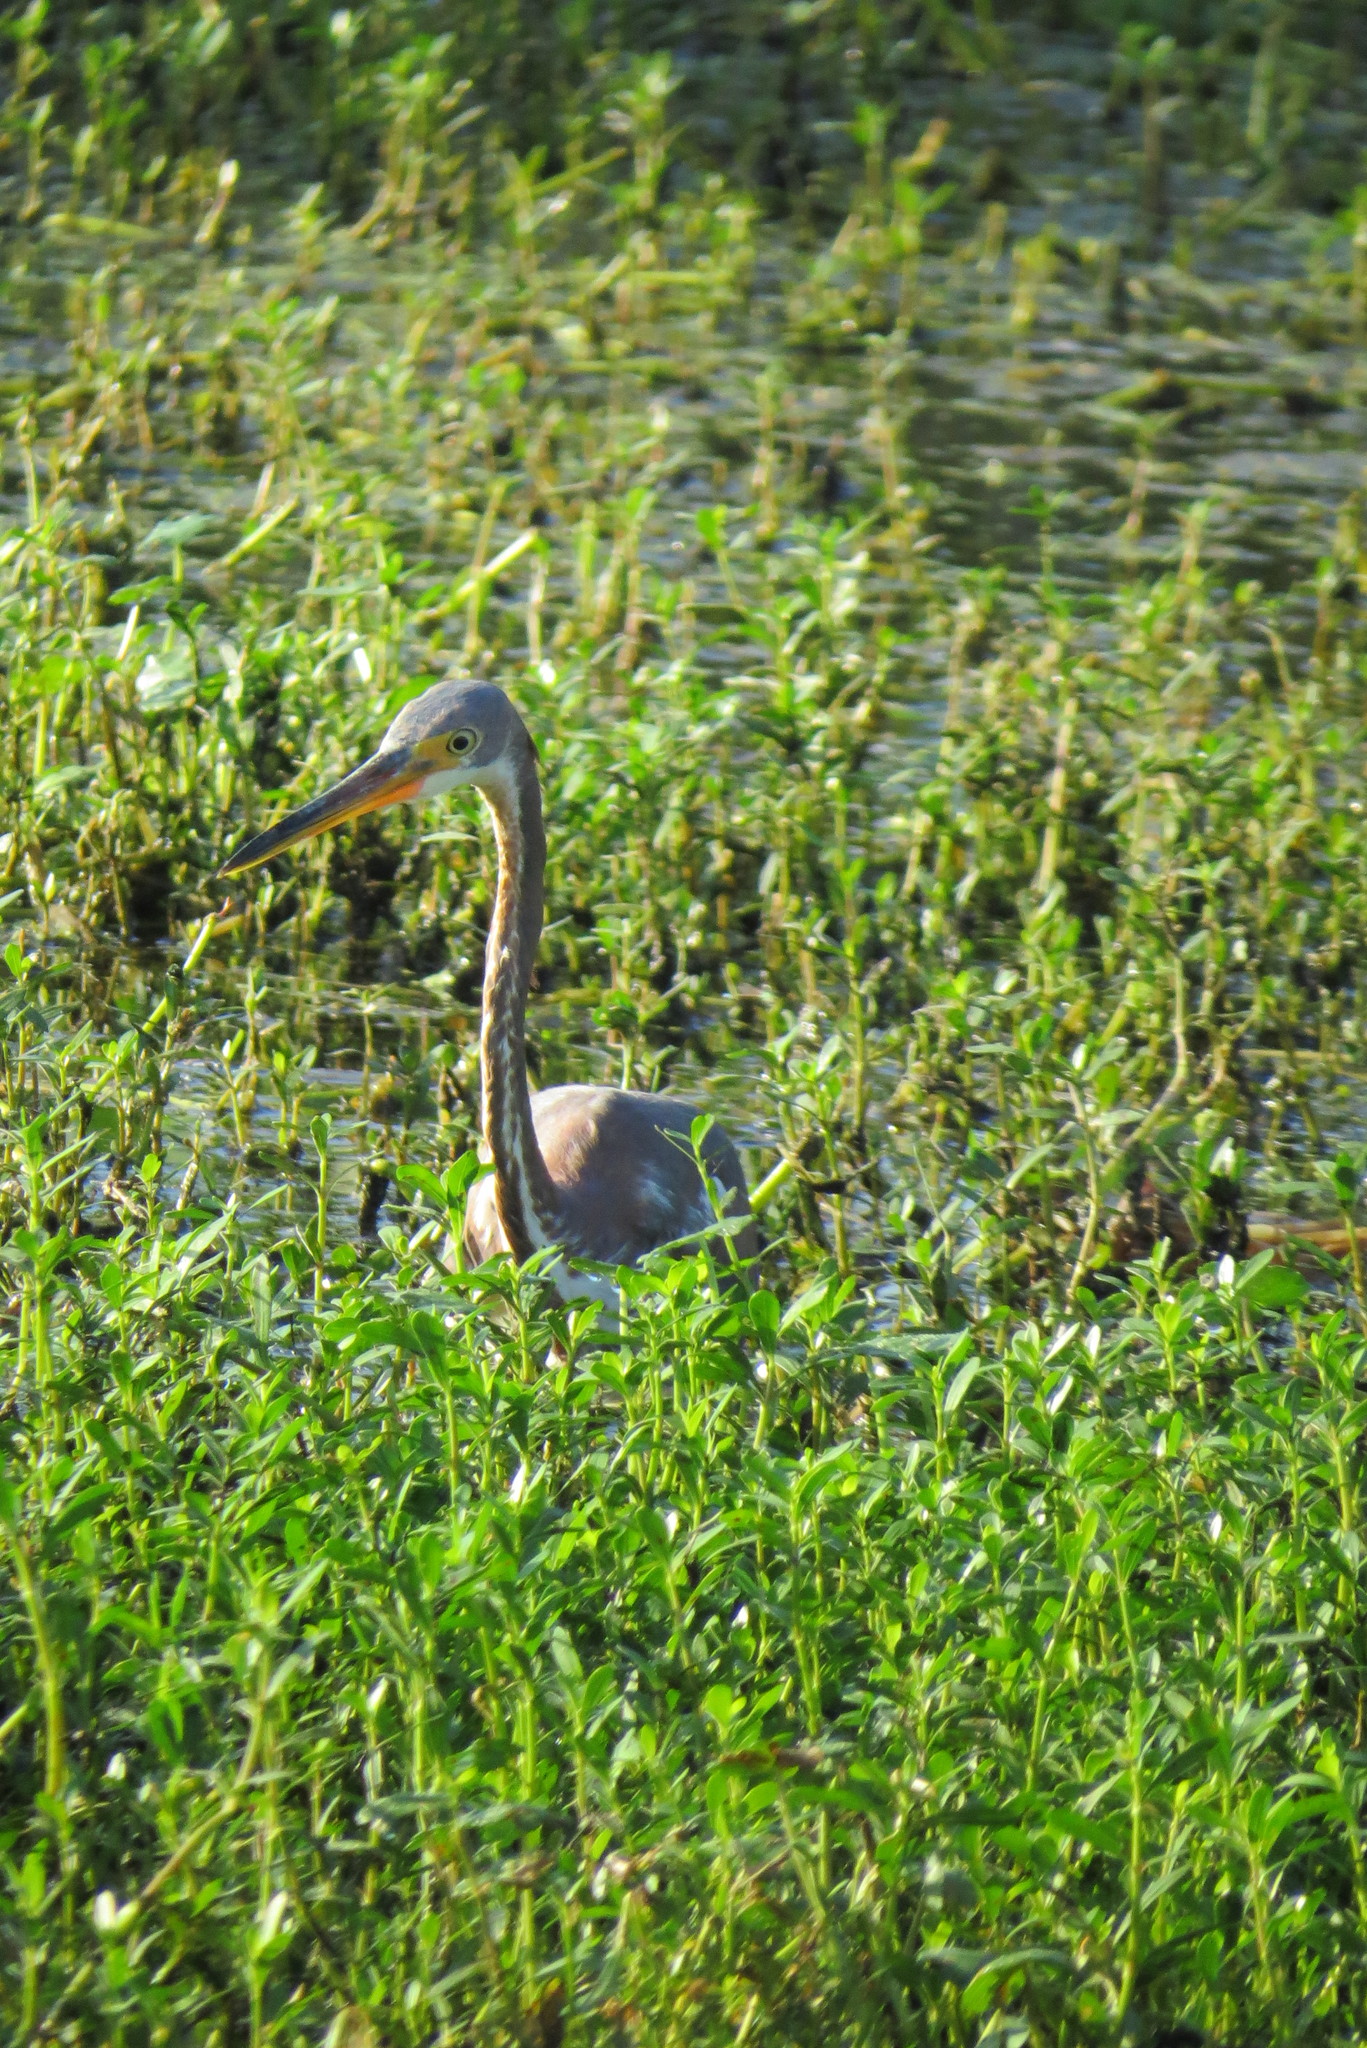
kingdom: Animalia
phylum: Chordata
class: Aves
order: Pelecaniformes
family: Ardeidae
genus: Egretta
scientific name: Egretta tricolor
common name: Tricolored heron
